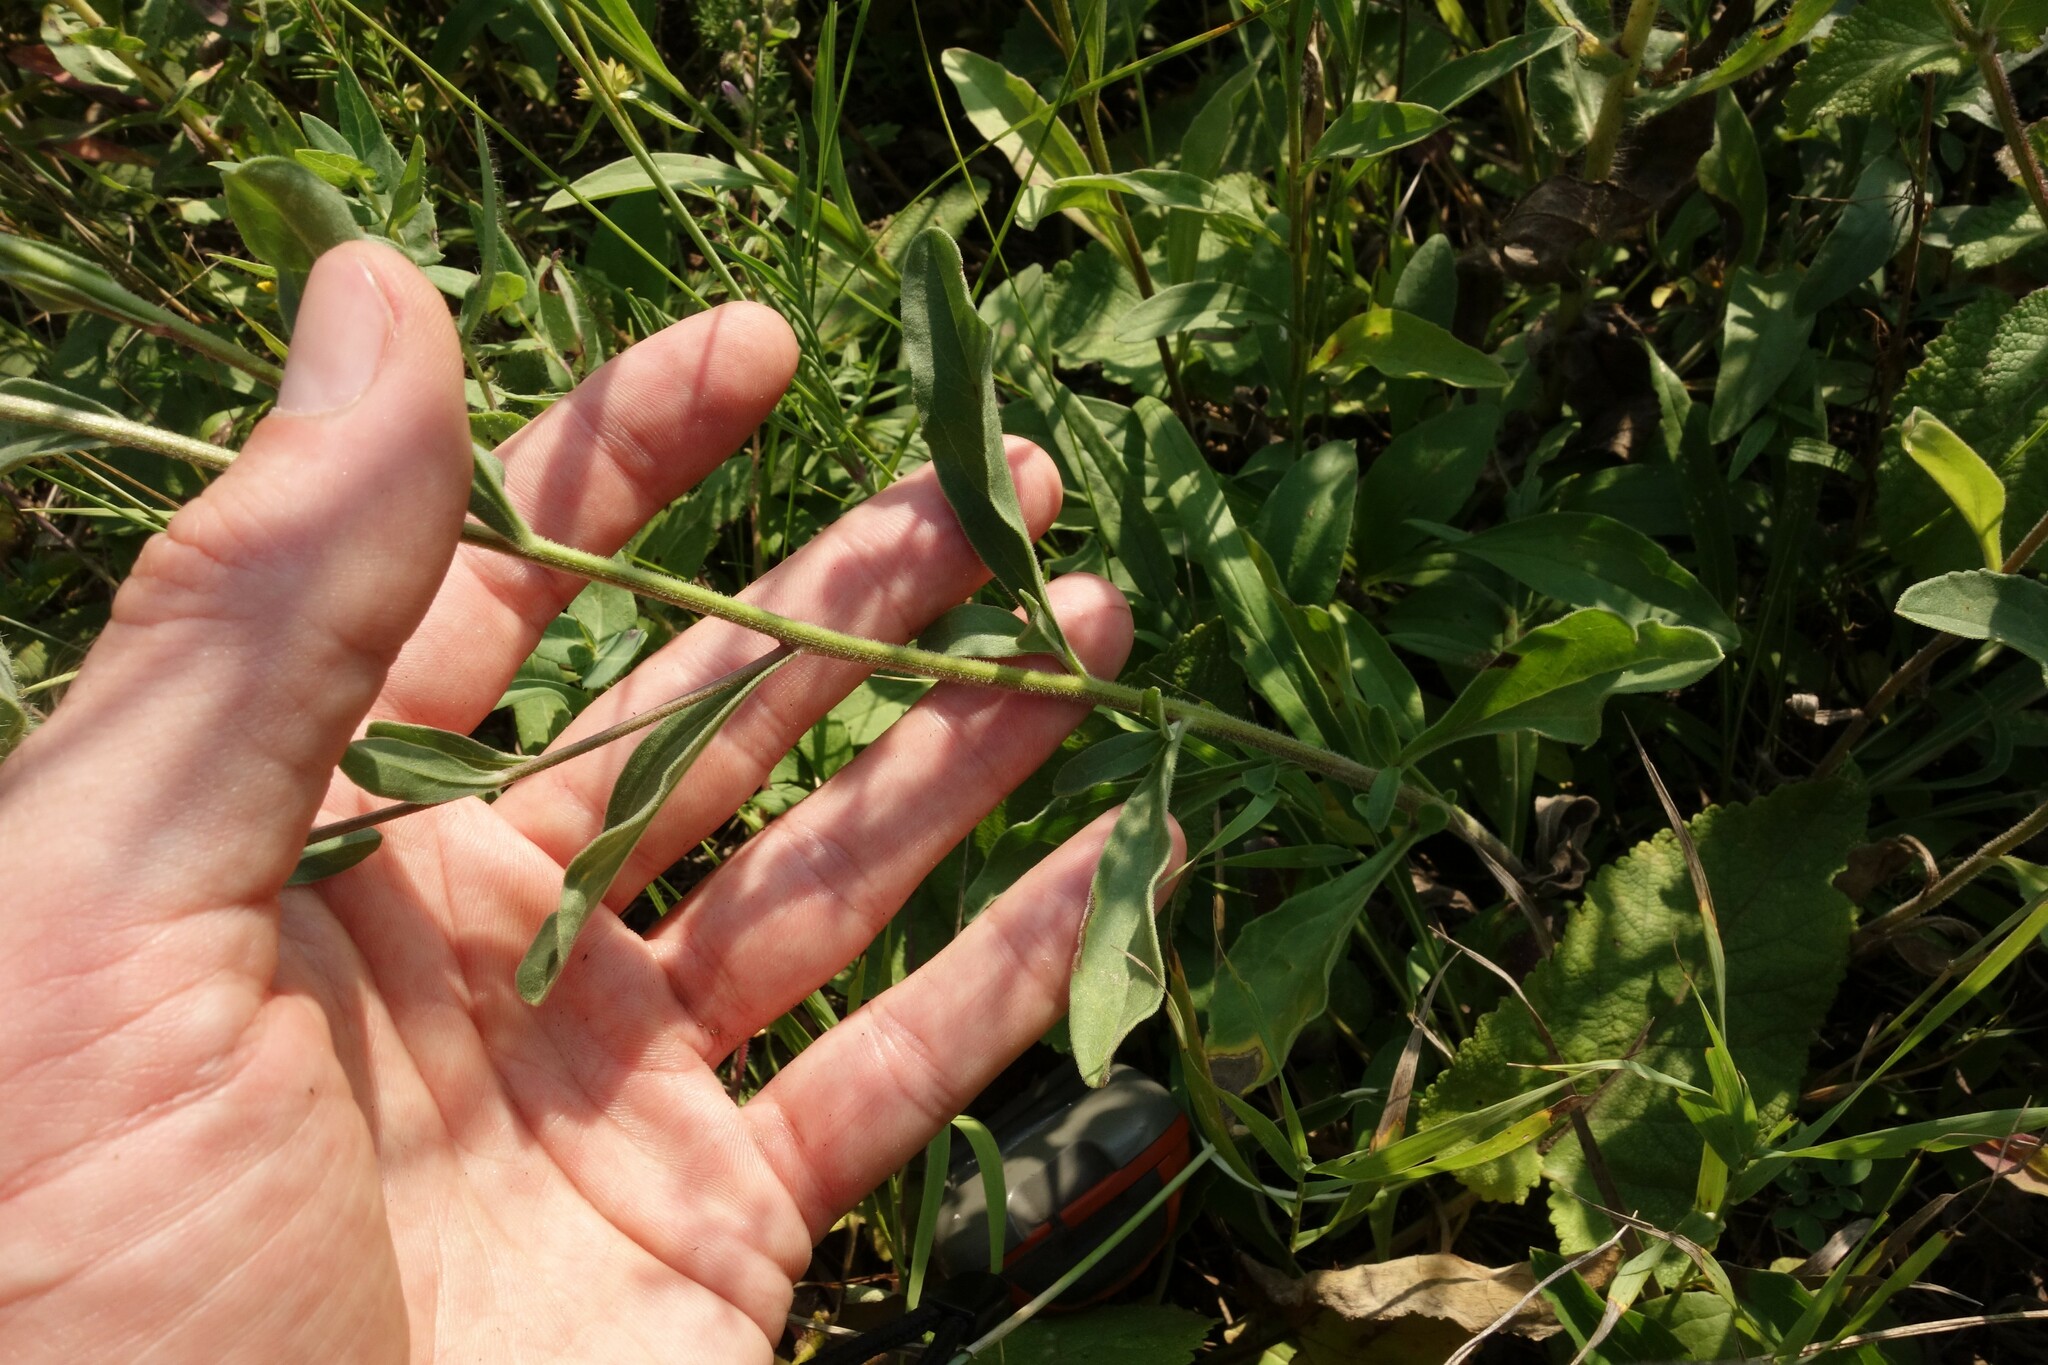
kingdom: Plantae
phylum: Tracheophyta
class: Magnoliopsida
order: Asterales
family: Asteraceae
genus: Aster
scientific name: Aster amellus
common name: European michaelmas daisy
